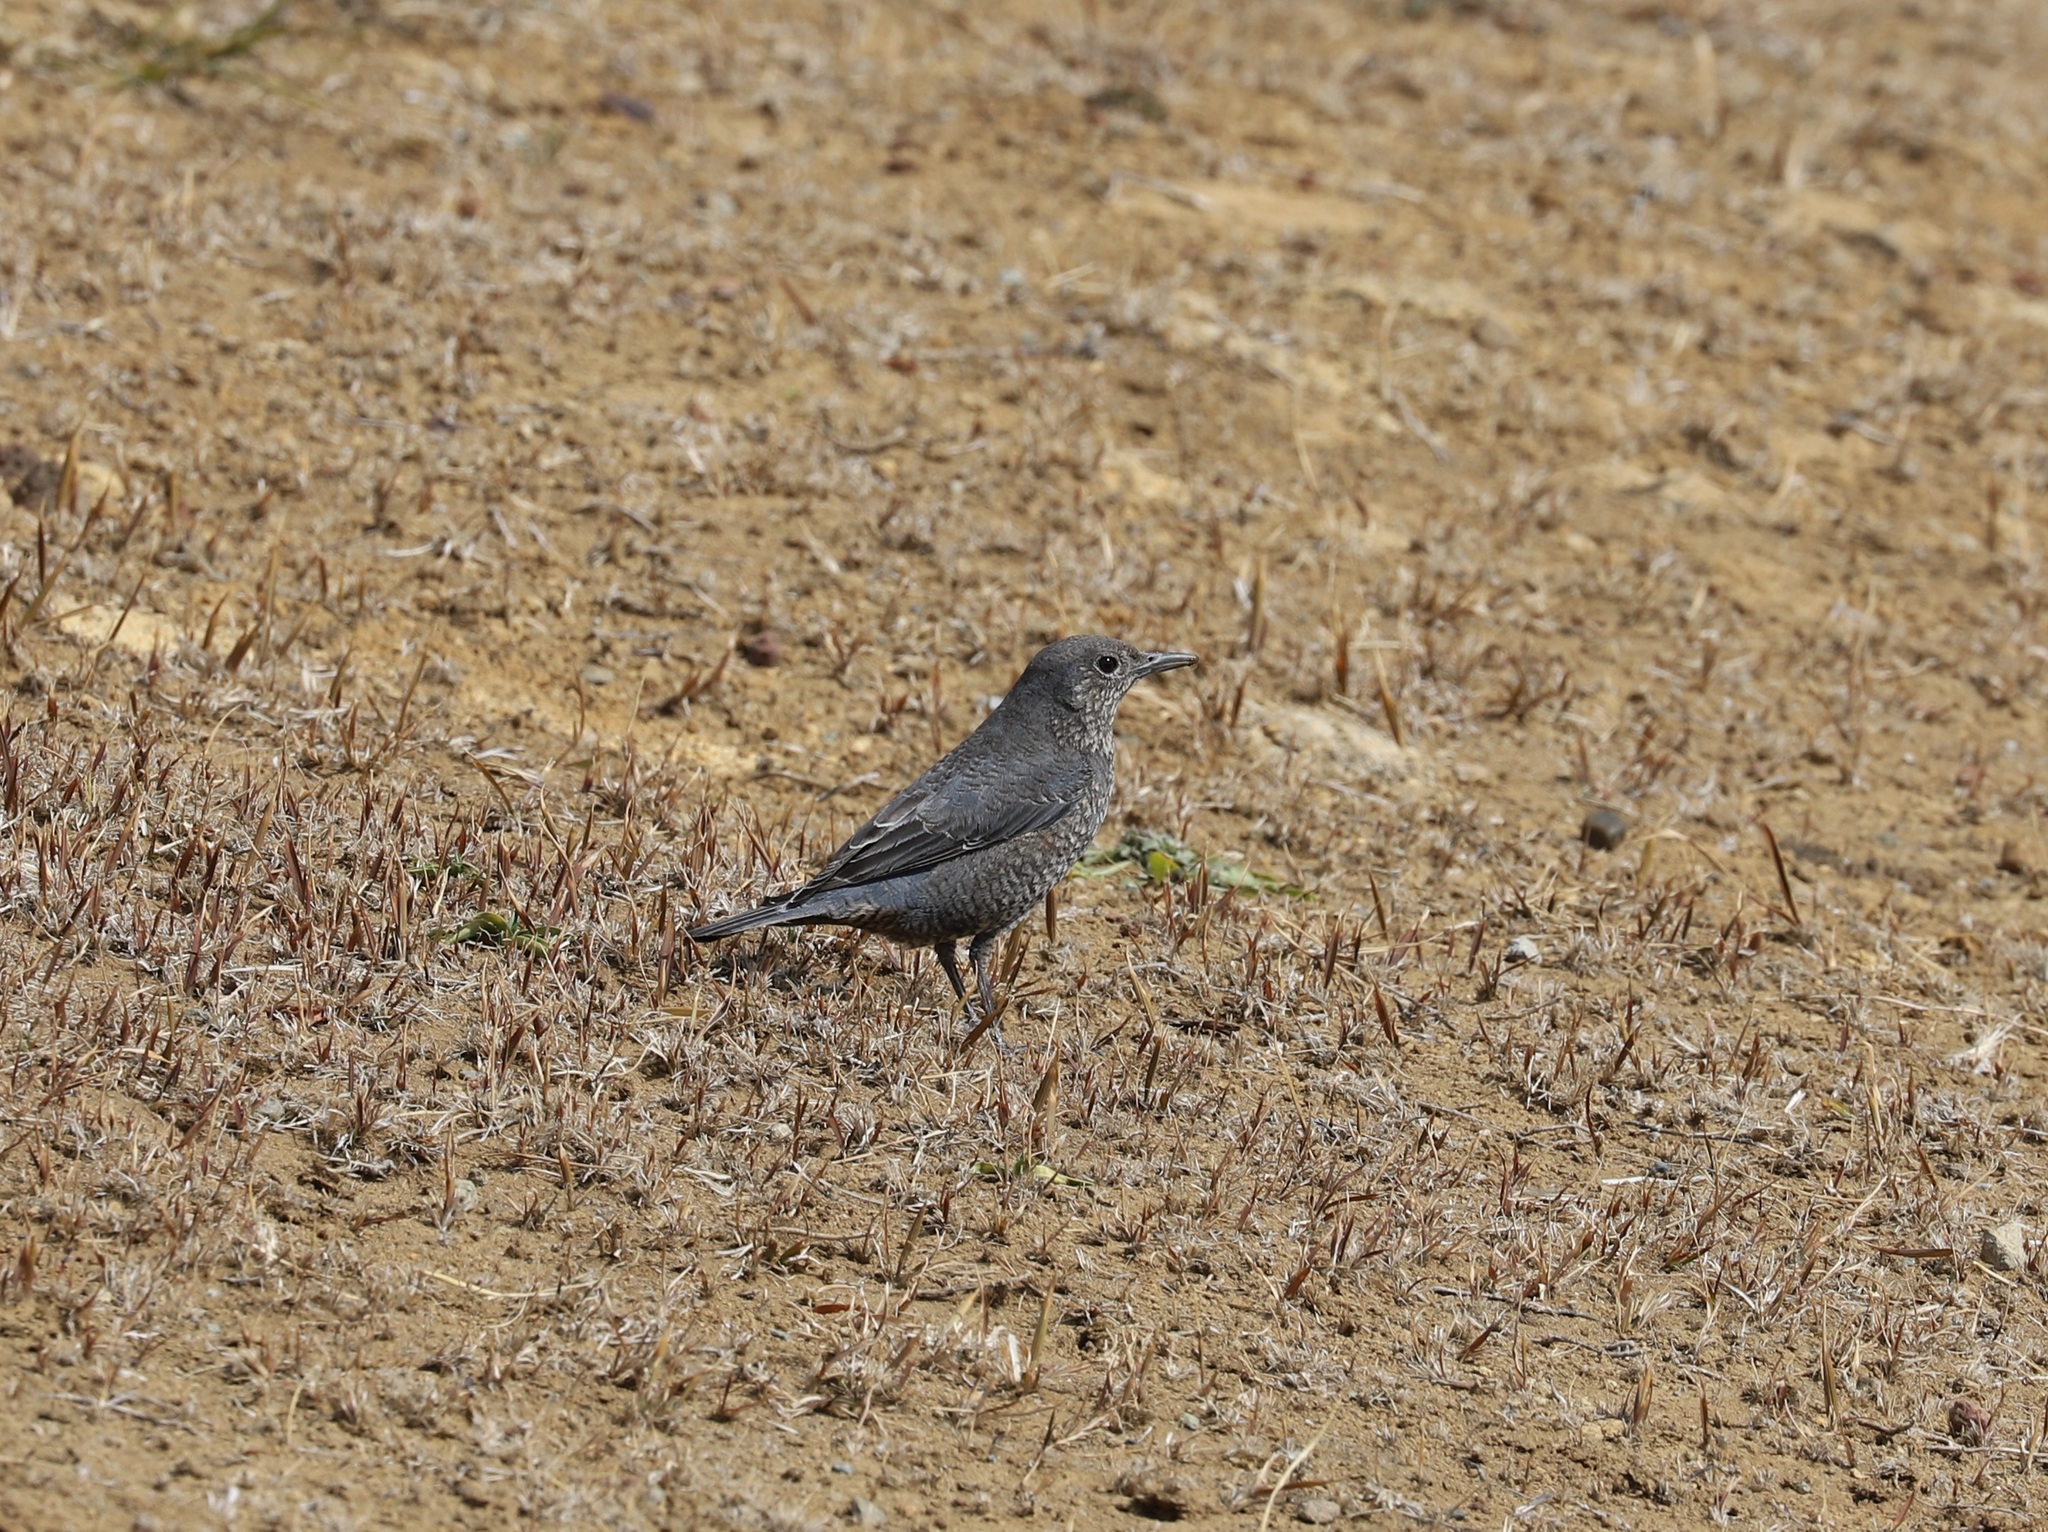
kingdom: Animalia
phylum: Chordata
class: Aves
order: Passeriformes
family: Muscicapidae
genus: Monticola
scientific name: Monticola solitarius
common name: Blue rock thrush
